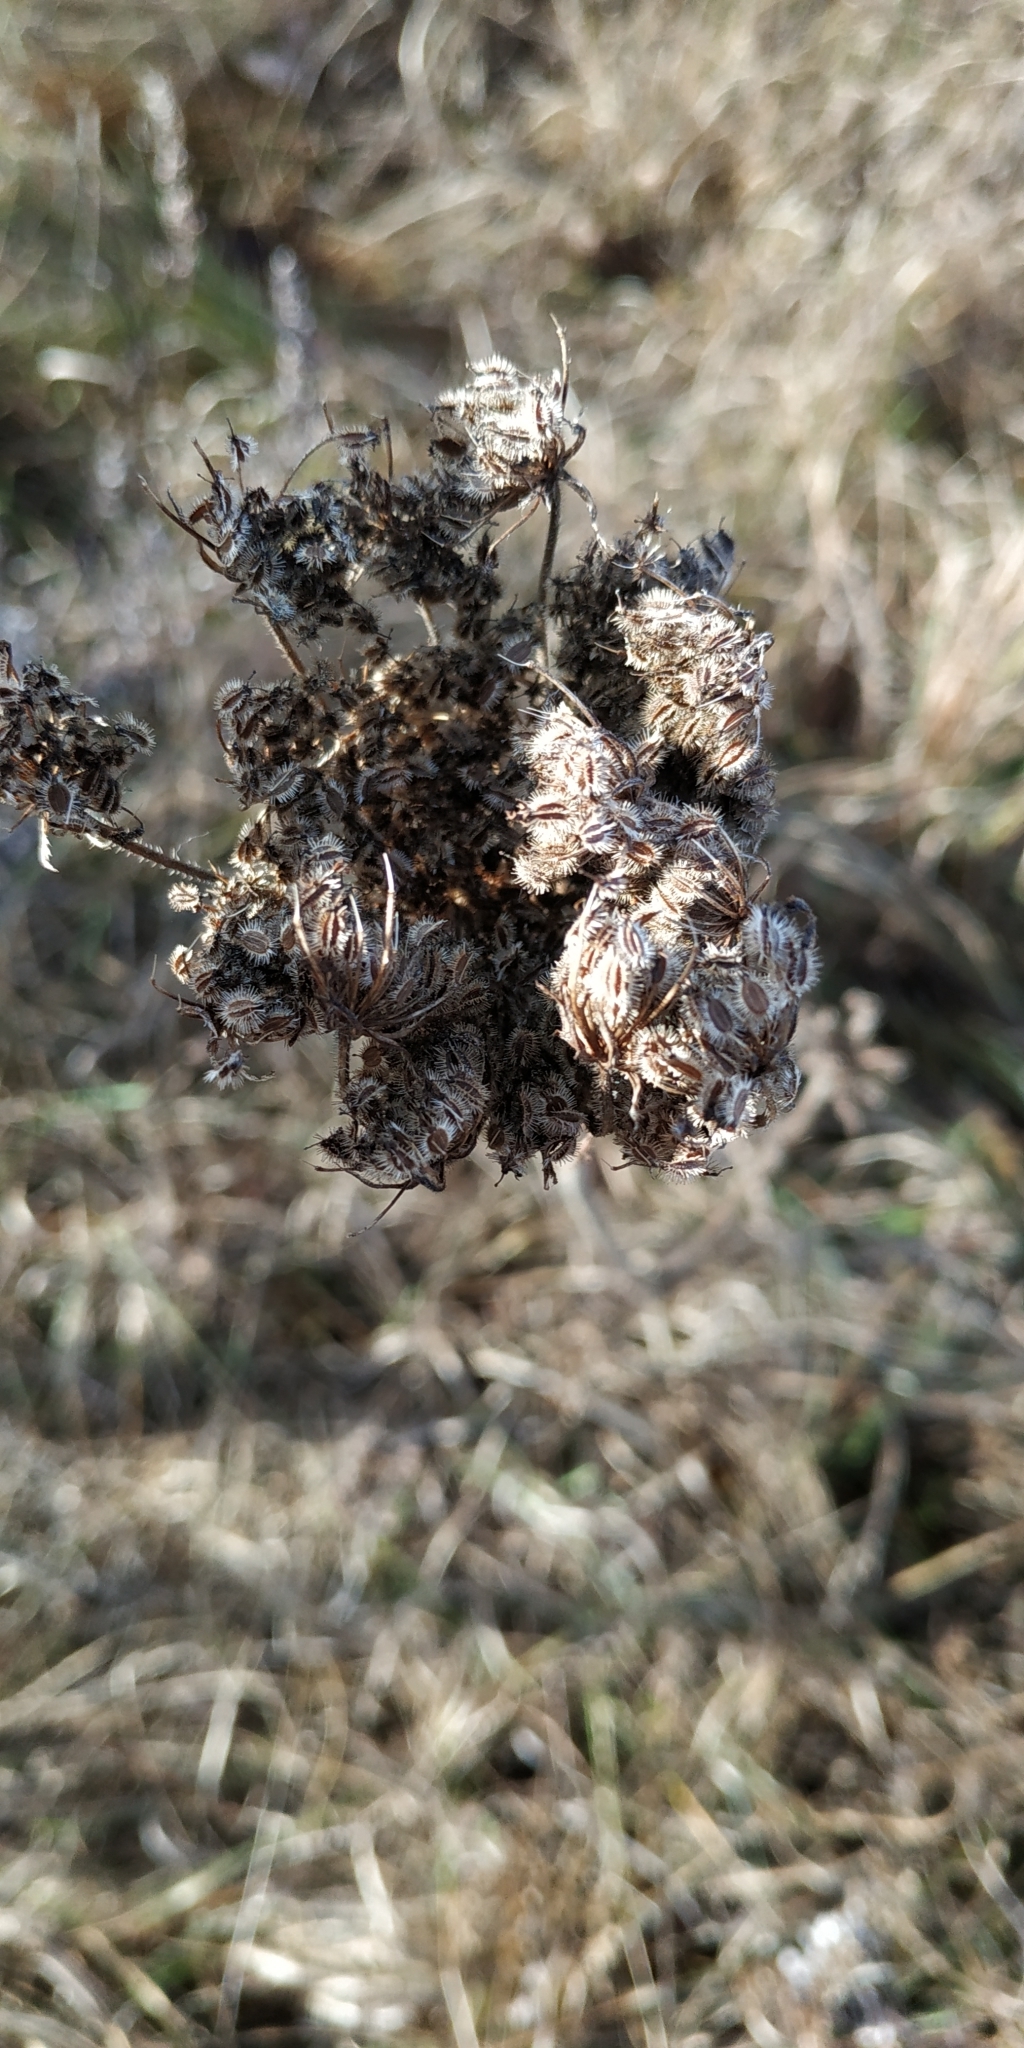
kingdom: Plantae
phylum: Tracheophyta
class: Magnoliopsida
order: Apiales
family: Apiaceae
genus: Daucus
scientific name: Daucus carota
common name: Wild carrot
